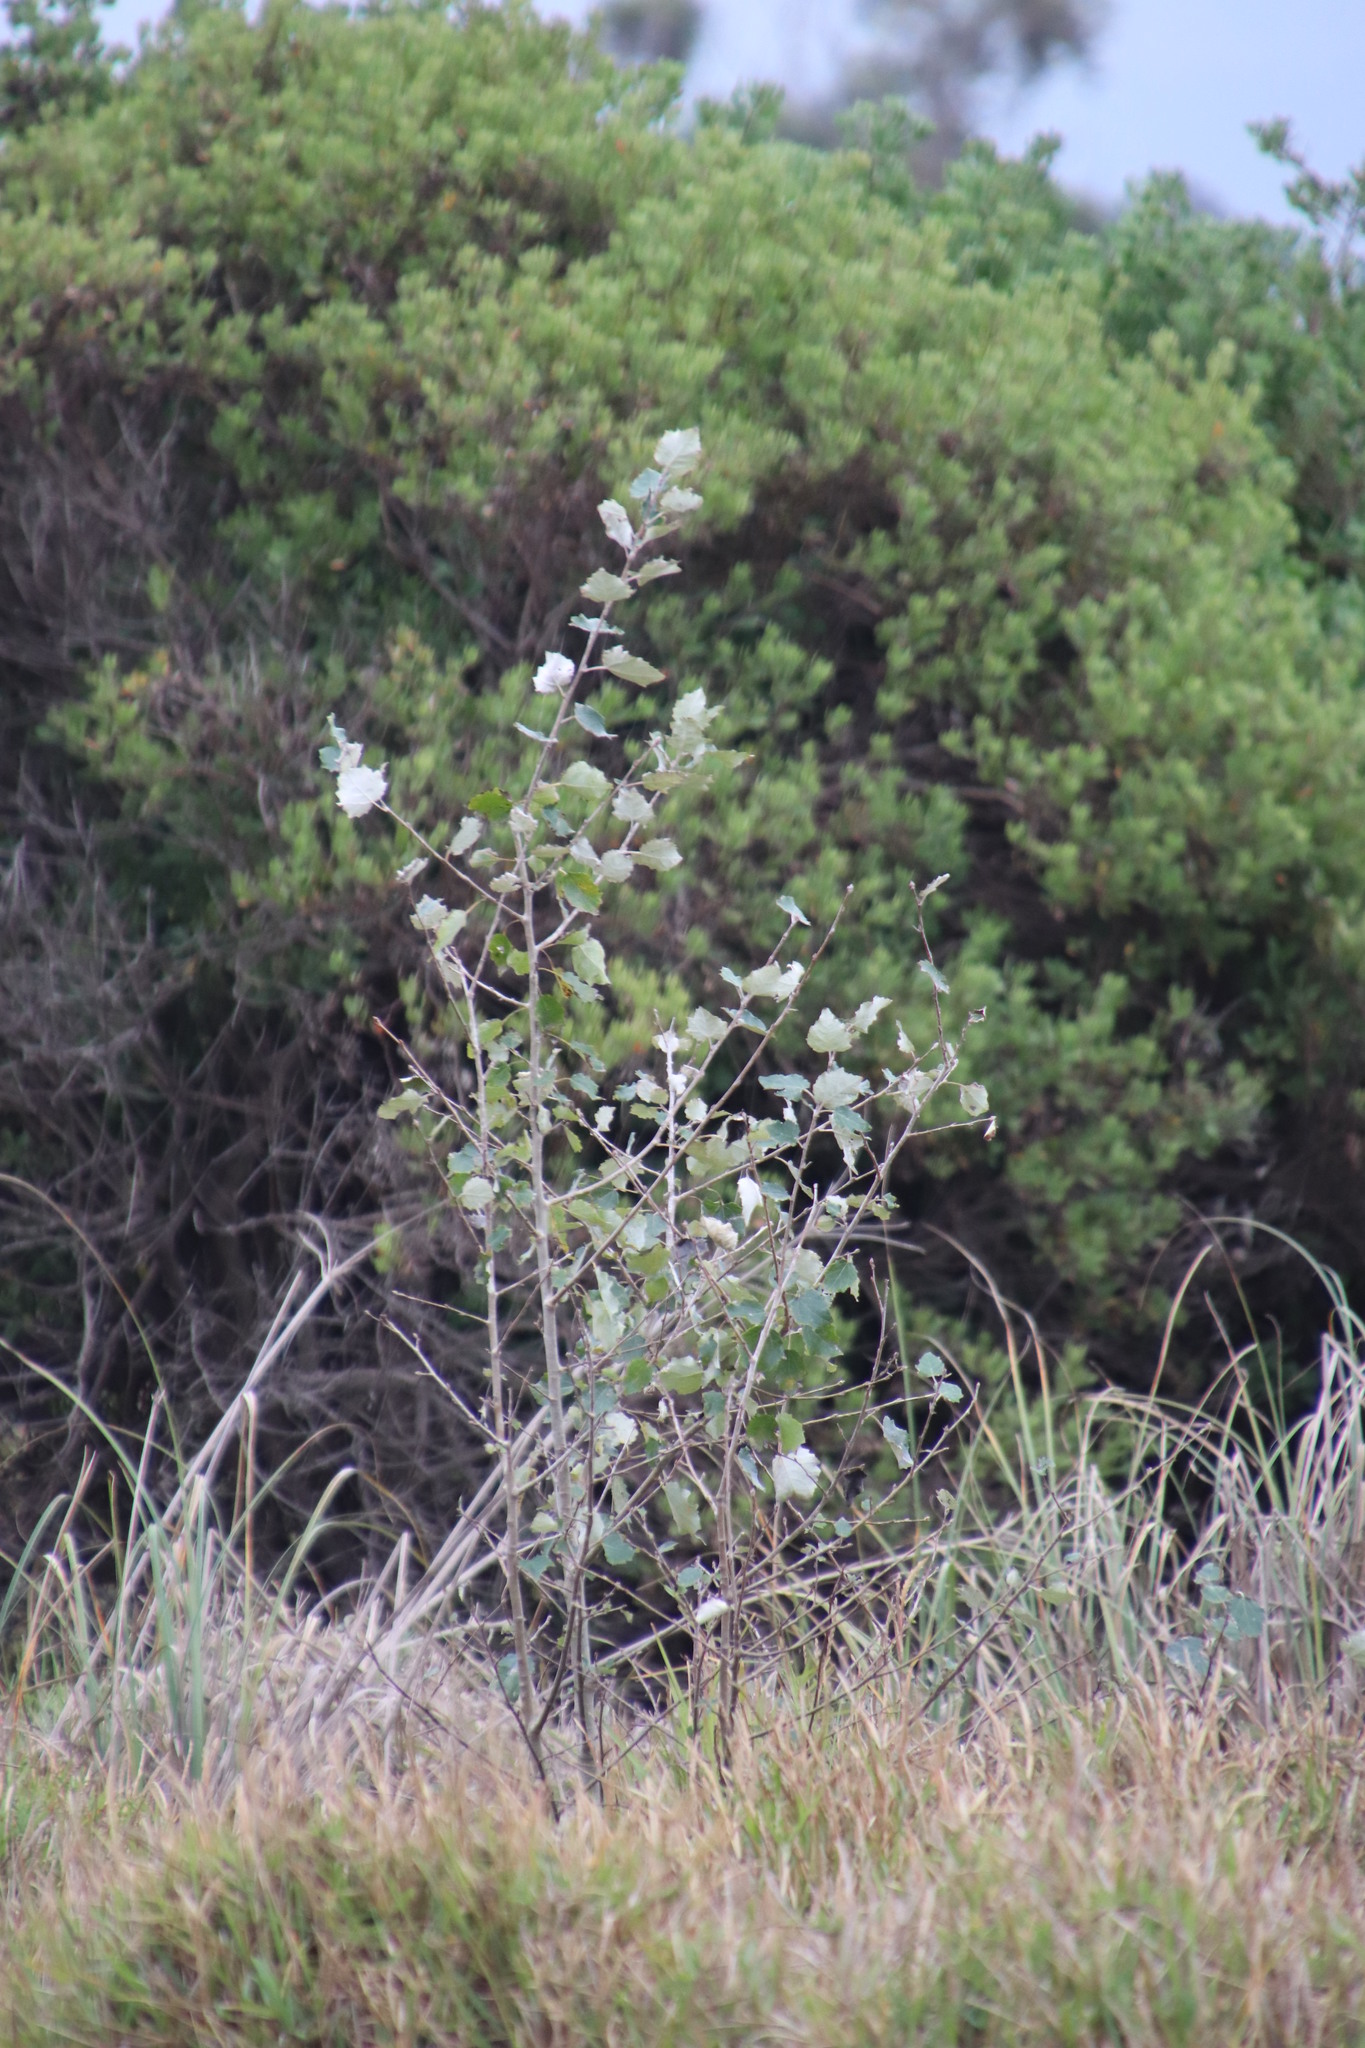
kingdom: Plantae
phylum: Tracheophyta
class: Magnoliopsida
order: Malpighiales
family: Salicaceae
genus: Populus
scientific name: Populus canescens
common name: Gray poplar
